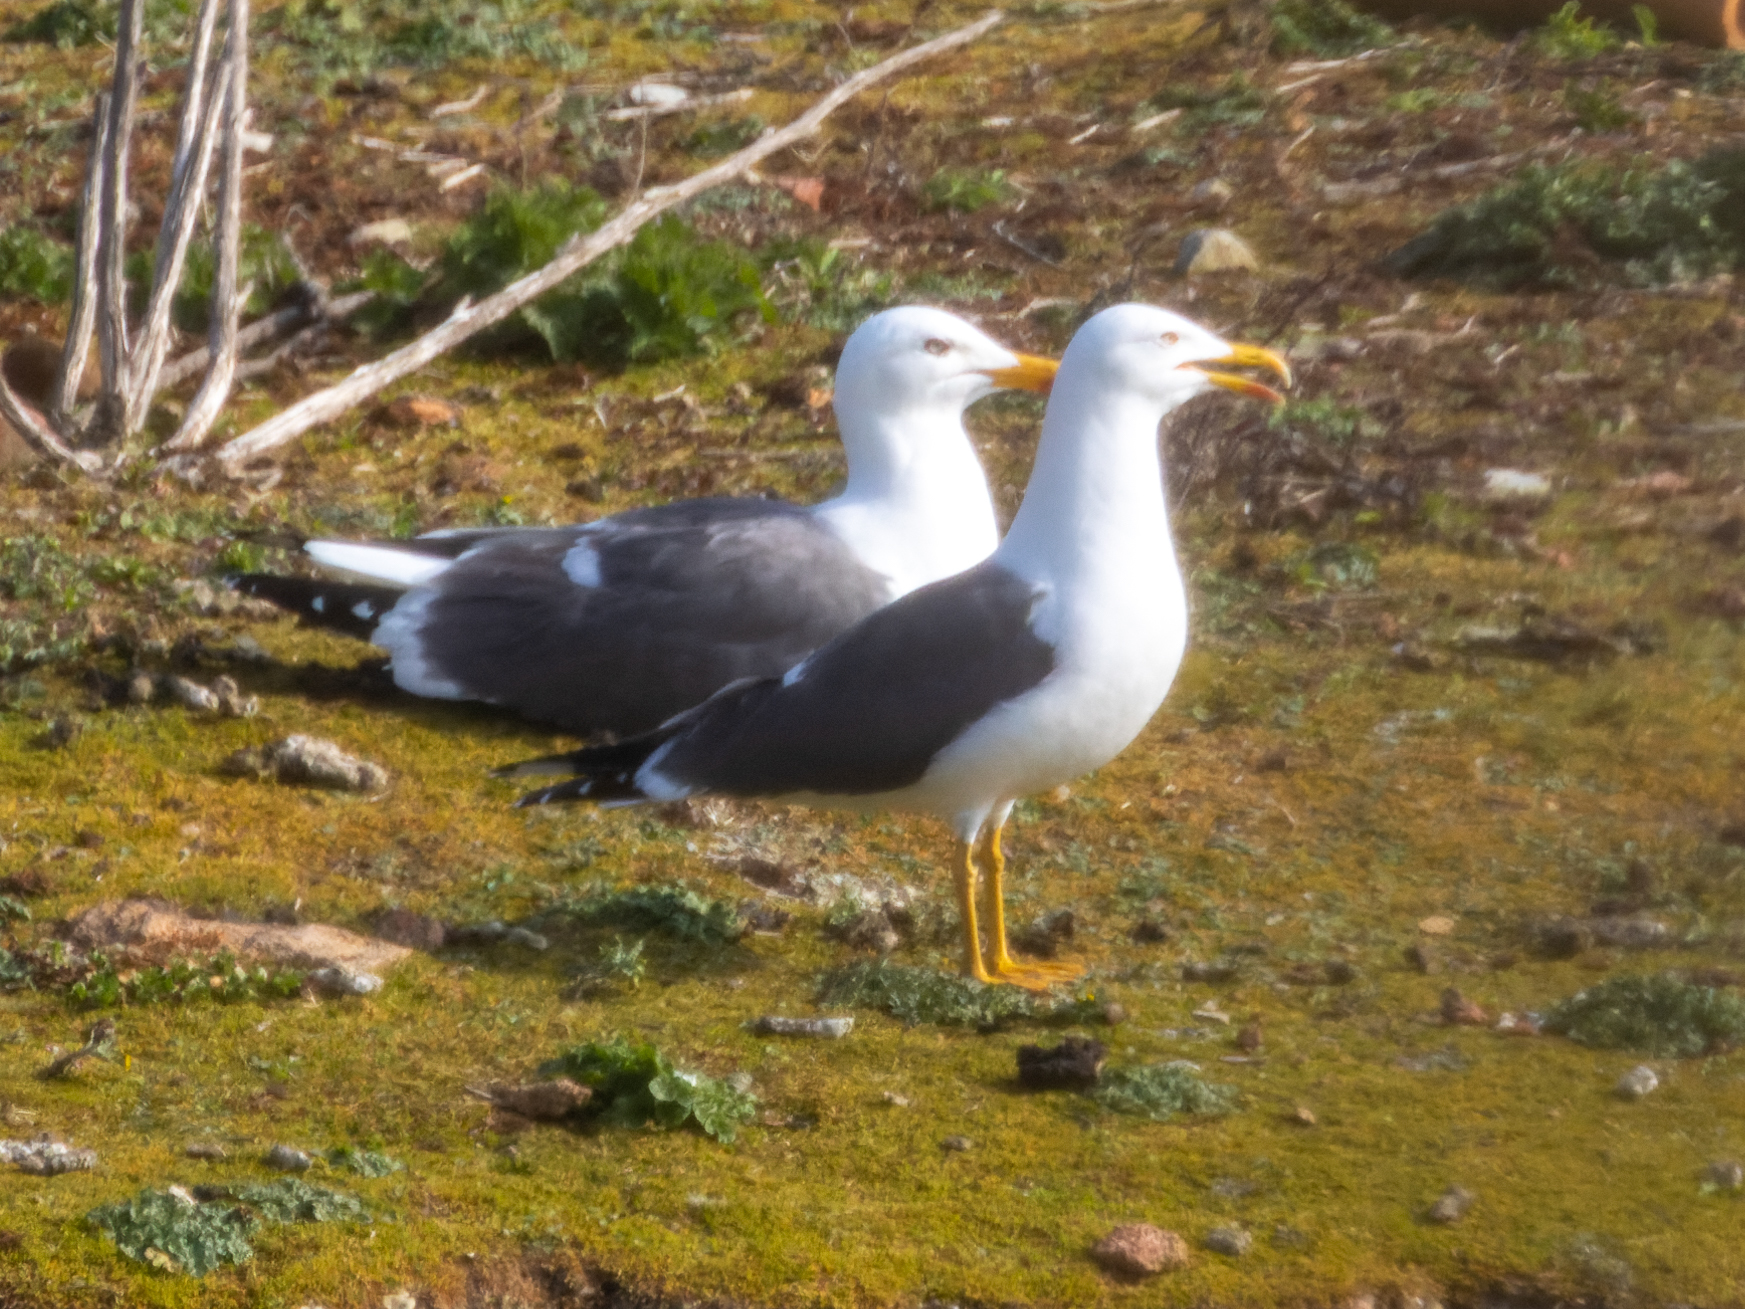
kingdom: Animalia
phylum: Chordata
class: Aves
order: Charadriiformes
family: Laridae
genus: Larus
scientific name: Larus fuscus
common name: Lesser black-backed gull
